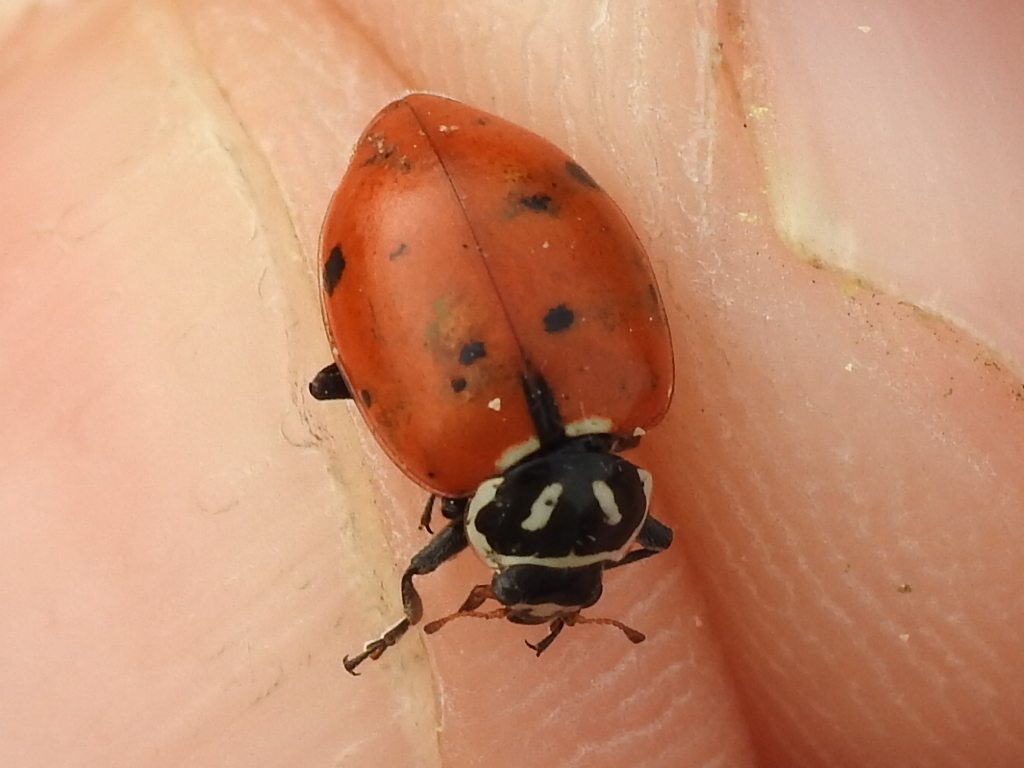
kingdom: Animalia
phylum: Arthropoda
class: Insecta
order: Coleoptera
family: Coccinellidae
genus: Hippodamia
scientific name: Hippodamia convergens
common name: Convergent lady beetle
